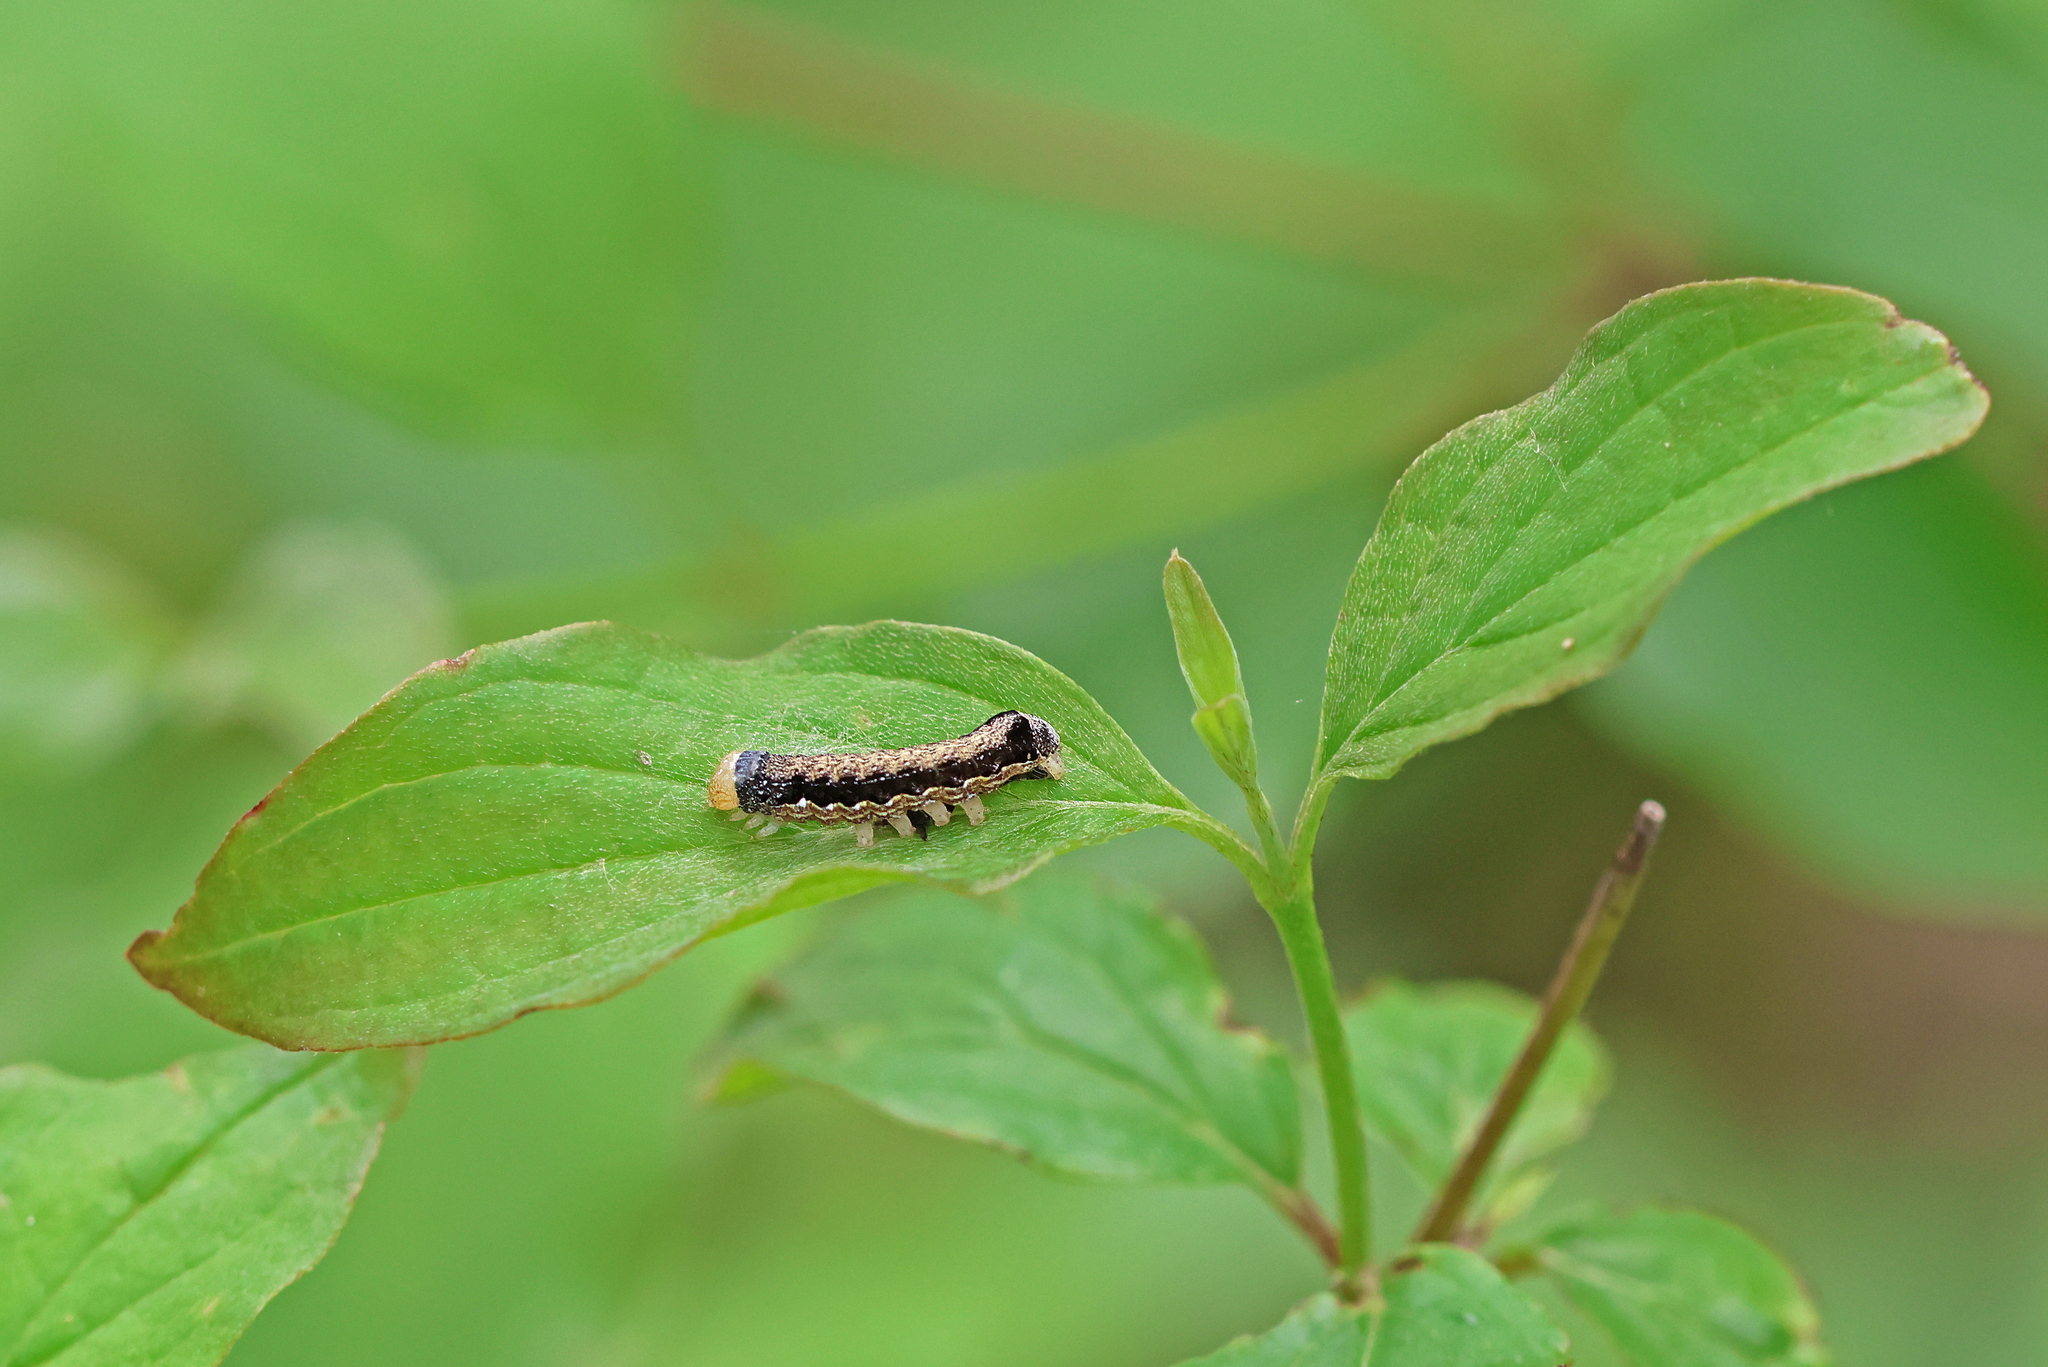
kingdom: Animalia
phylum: Arthropoda
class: Insecta
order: Lepidoptera
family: Noctuidae
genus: Anorthoa
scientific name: Anorthoa munda
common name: Twin-spotted quaker
